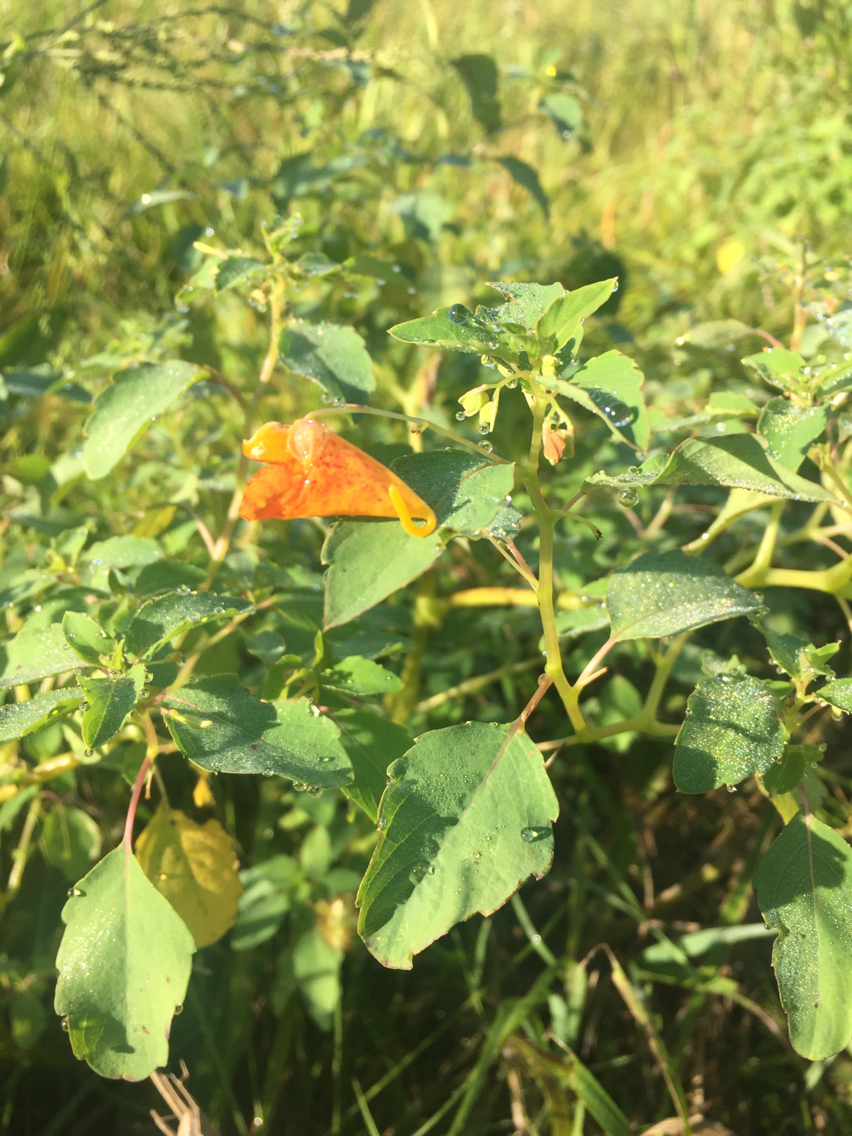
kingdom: Plantae
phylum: Tracheophyta
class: Magnoliopsida
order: Ericales
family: Balsaminaceae
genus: Impatiens
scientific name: Impatiens capensis
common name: Orange balsam
